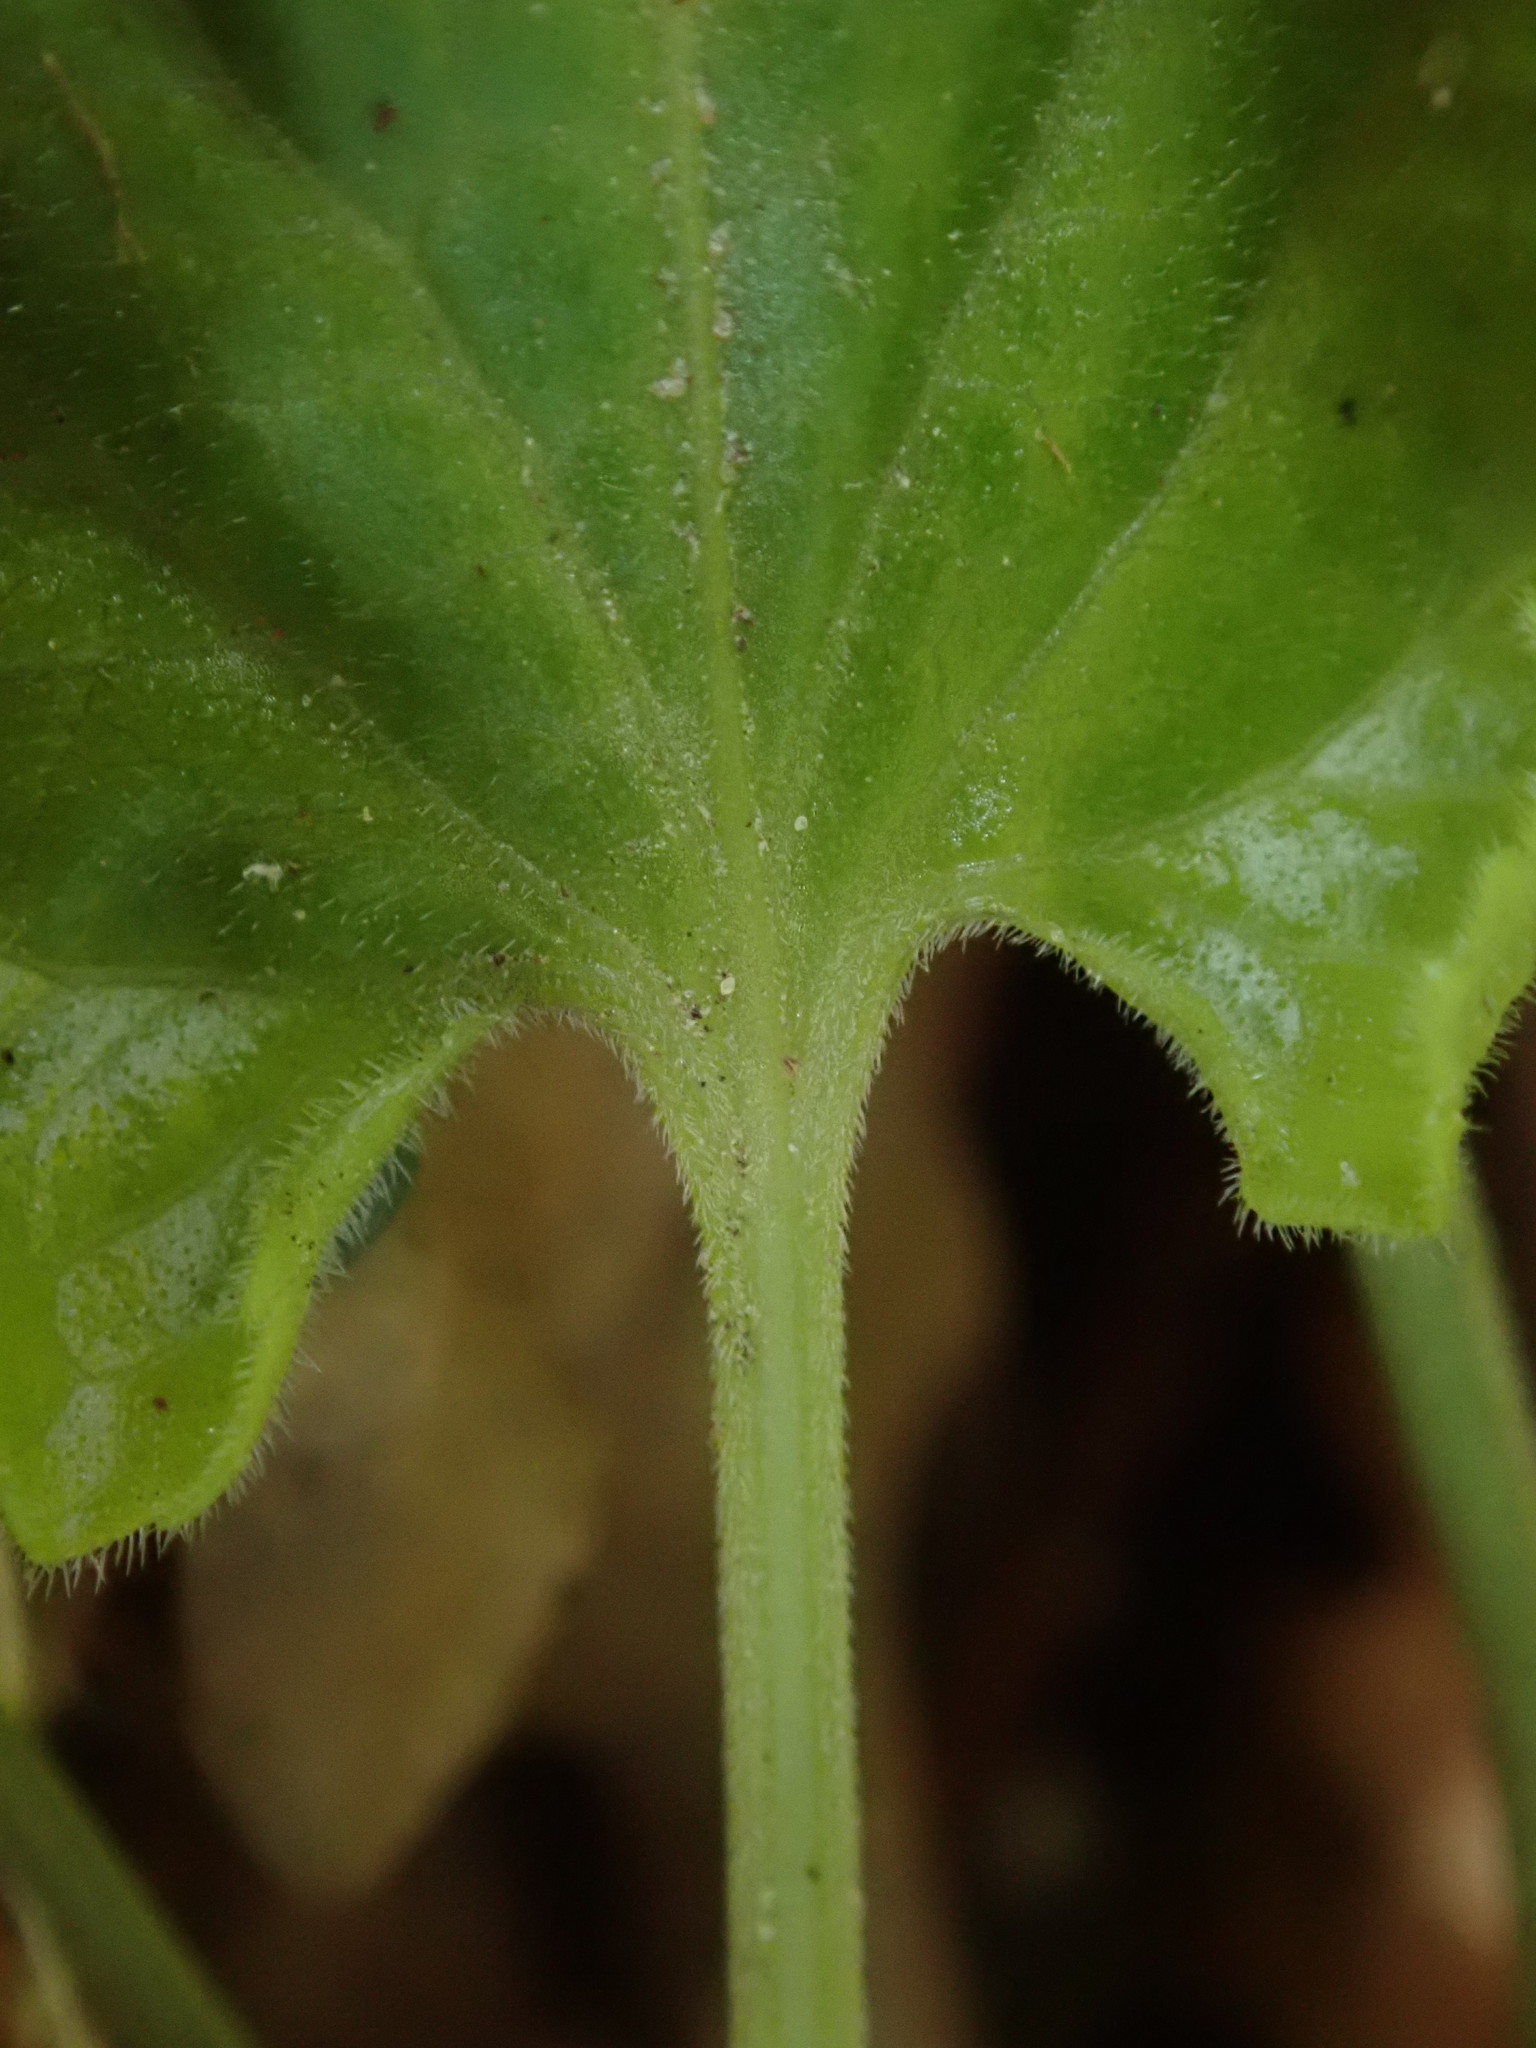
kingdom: Plantae
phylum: Tracheophyta
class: Magnoliopsida
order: Malpighiales
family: Violaceae
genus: Viola
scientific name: Viola odorata
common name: Sweet violet
